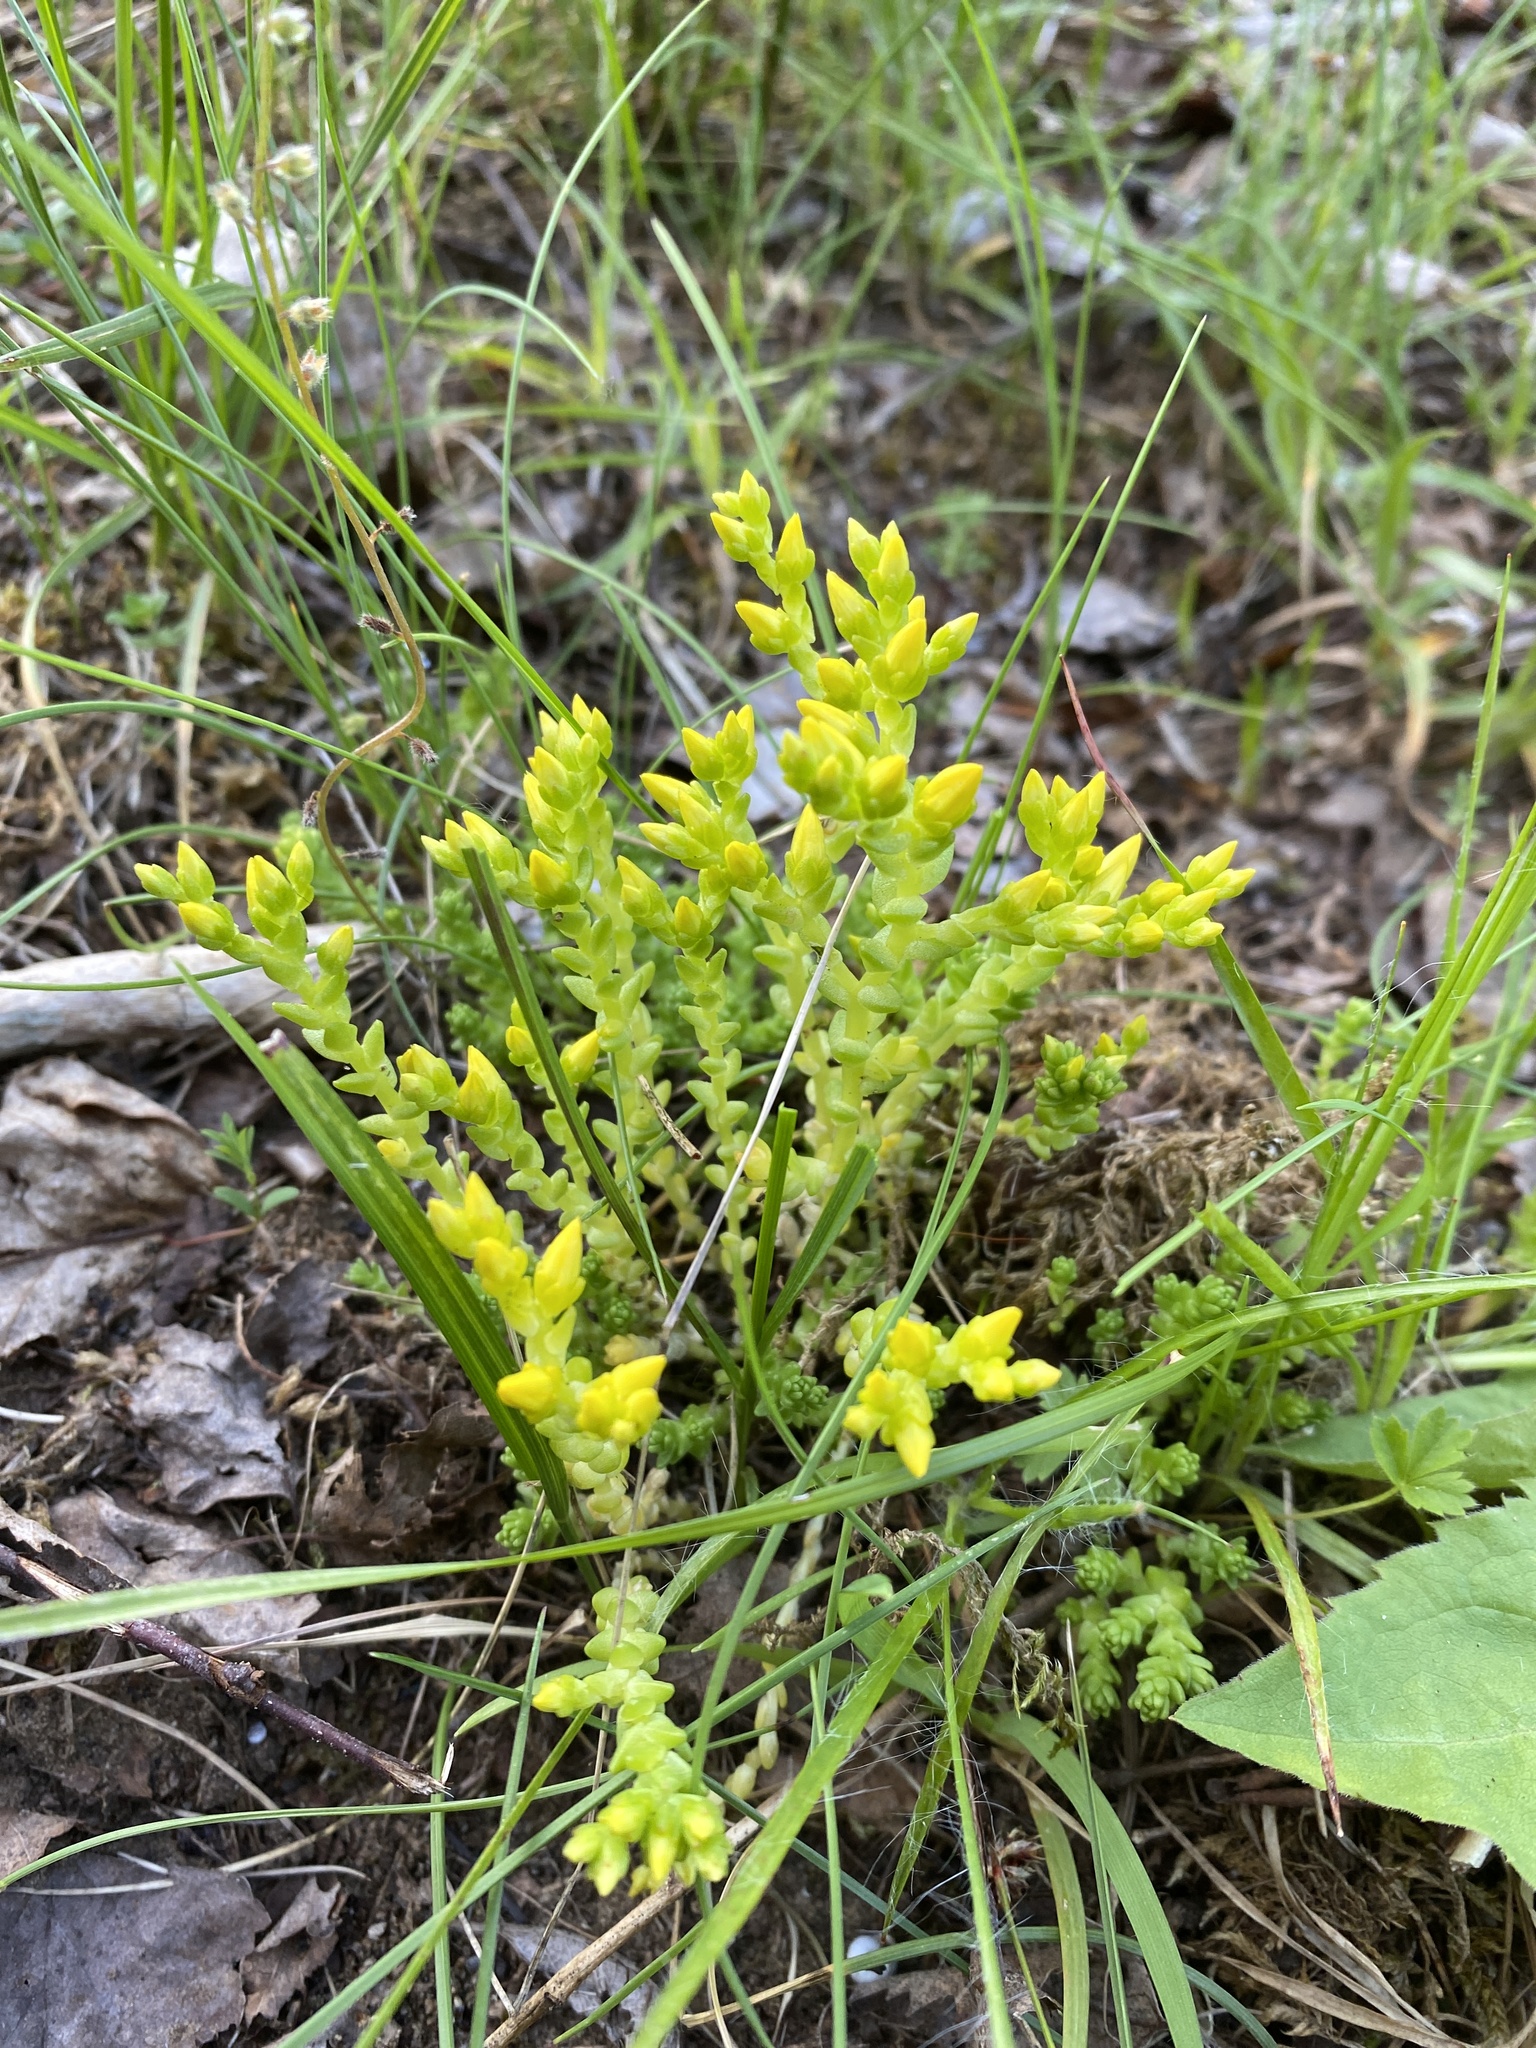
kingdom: Plantae
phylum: Tracheophyta
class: Magnoliopsida
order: Saxifragales
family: Crassulaceae
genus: Sedum
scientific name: Sedum acre
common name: Biting stonecrop
